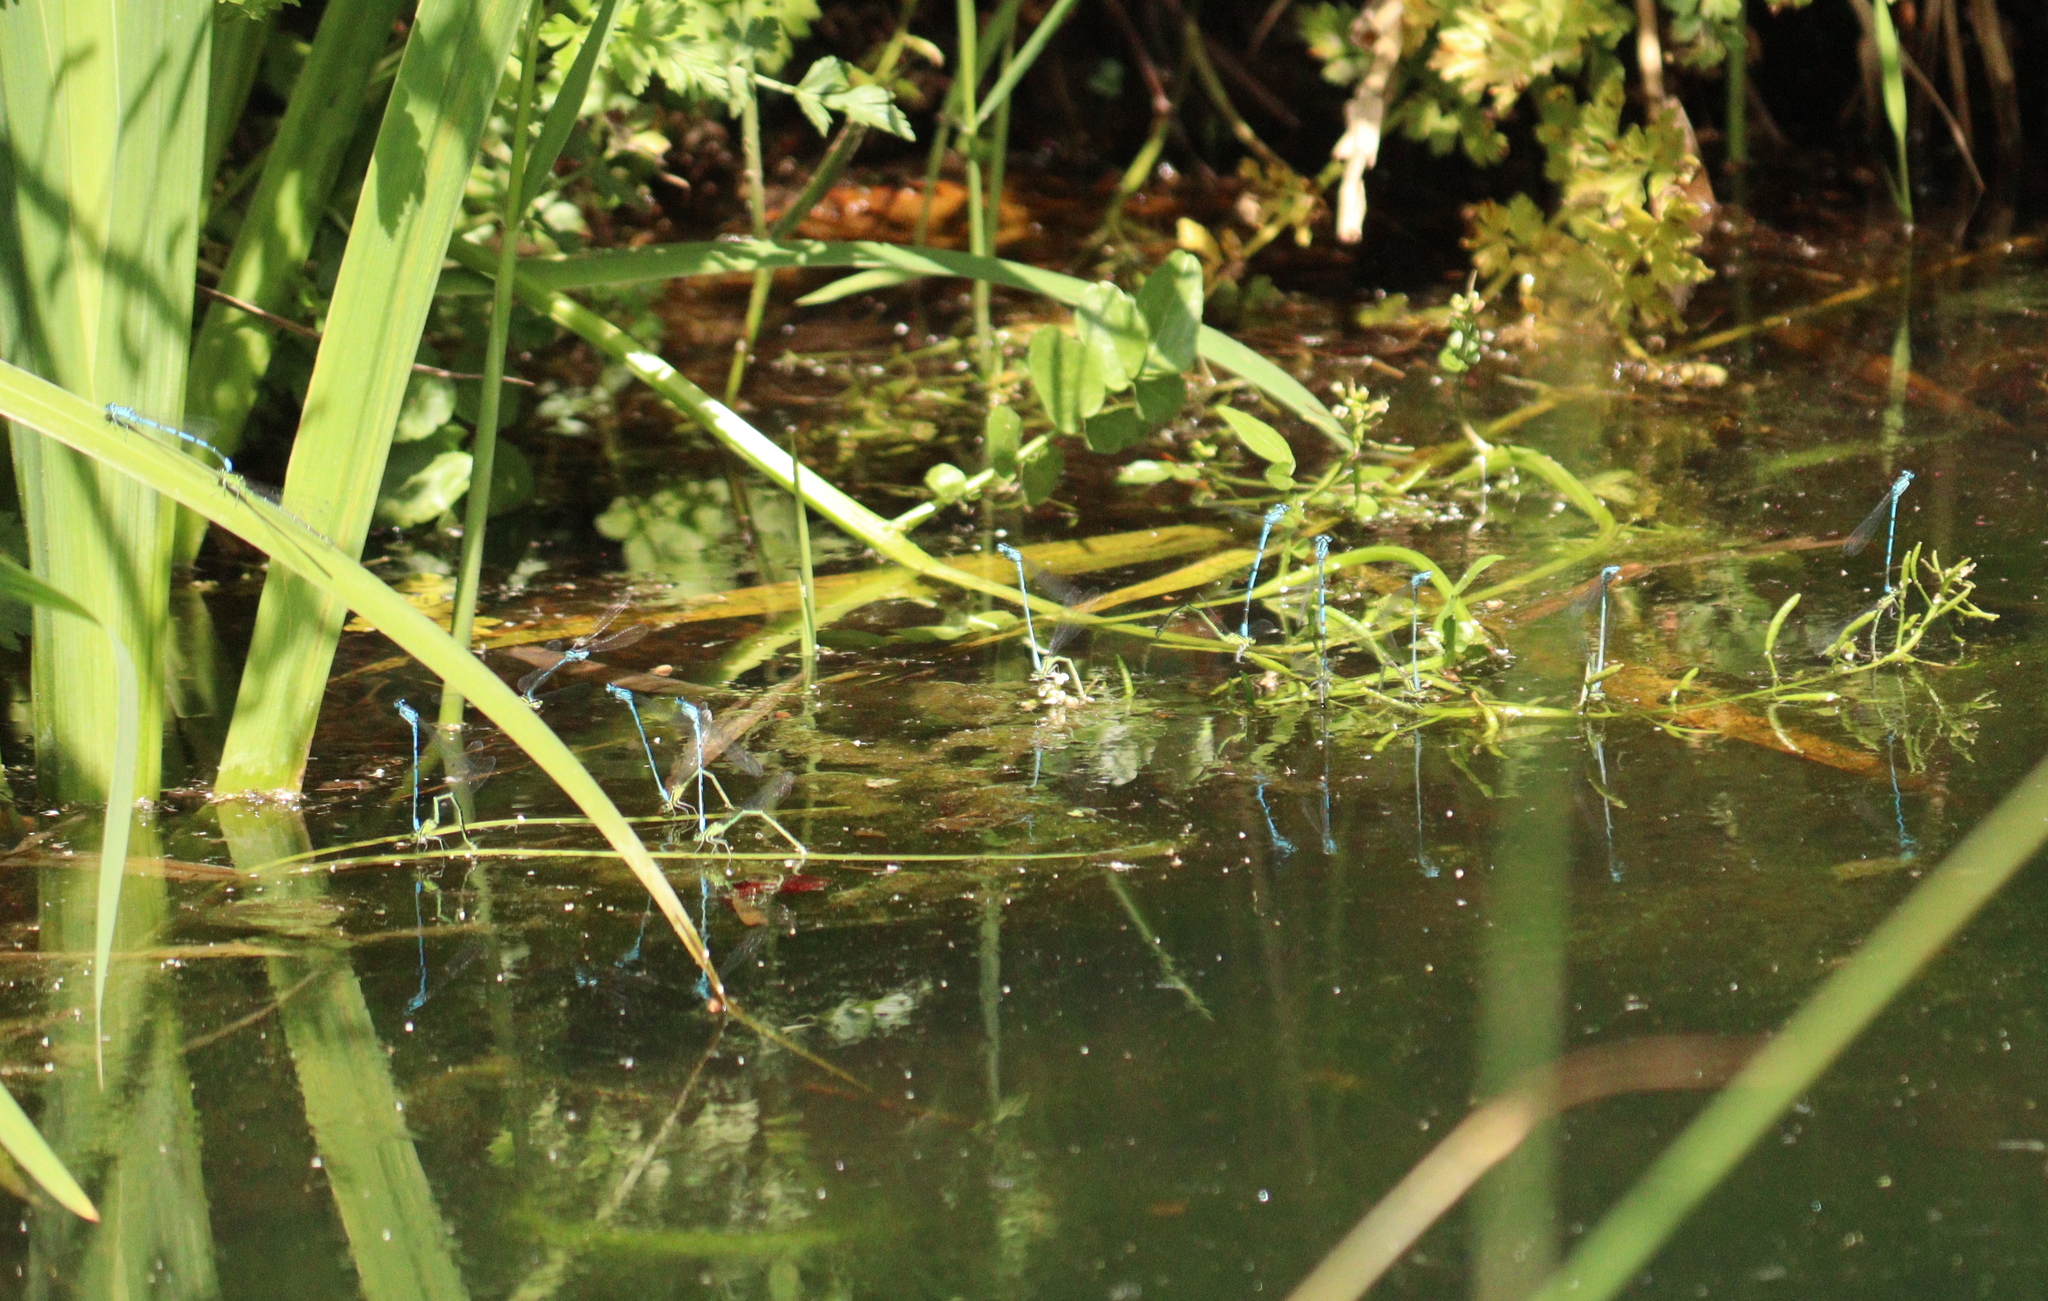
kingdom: Animalia
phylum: Arthropoda
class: Insecta
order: Odonata
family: Coenagrionidae
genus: Coenagrion
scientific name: Coenagrion puella
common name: Azure damselfly
